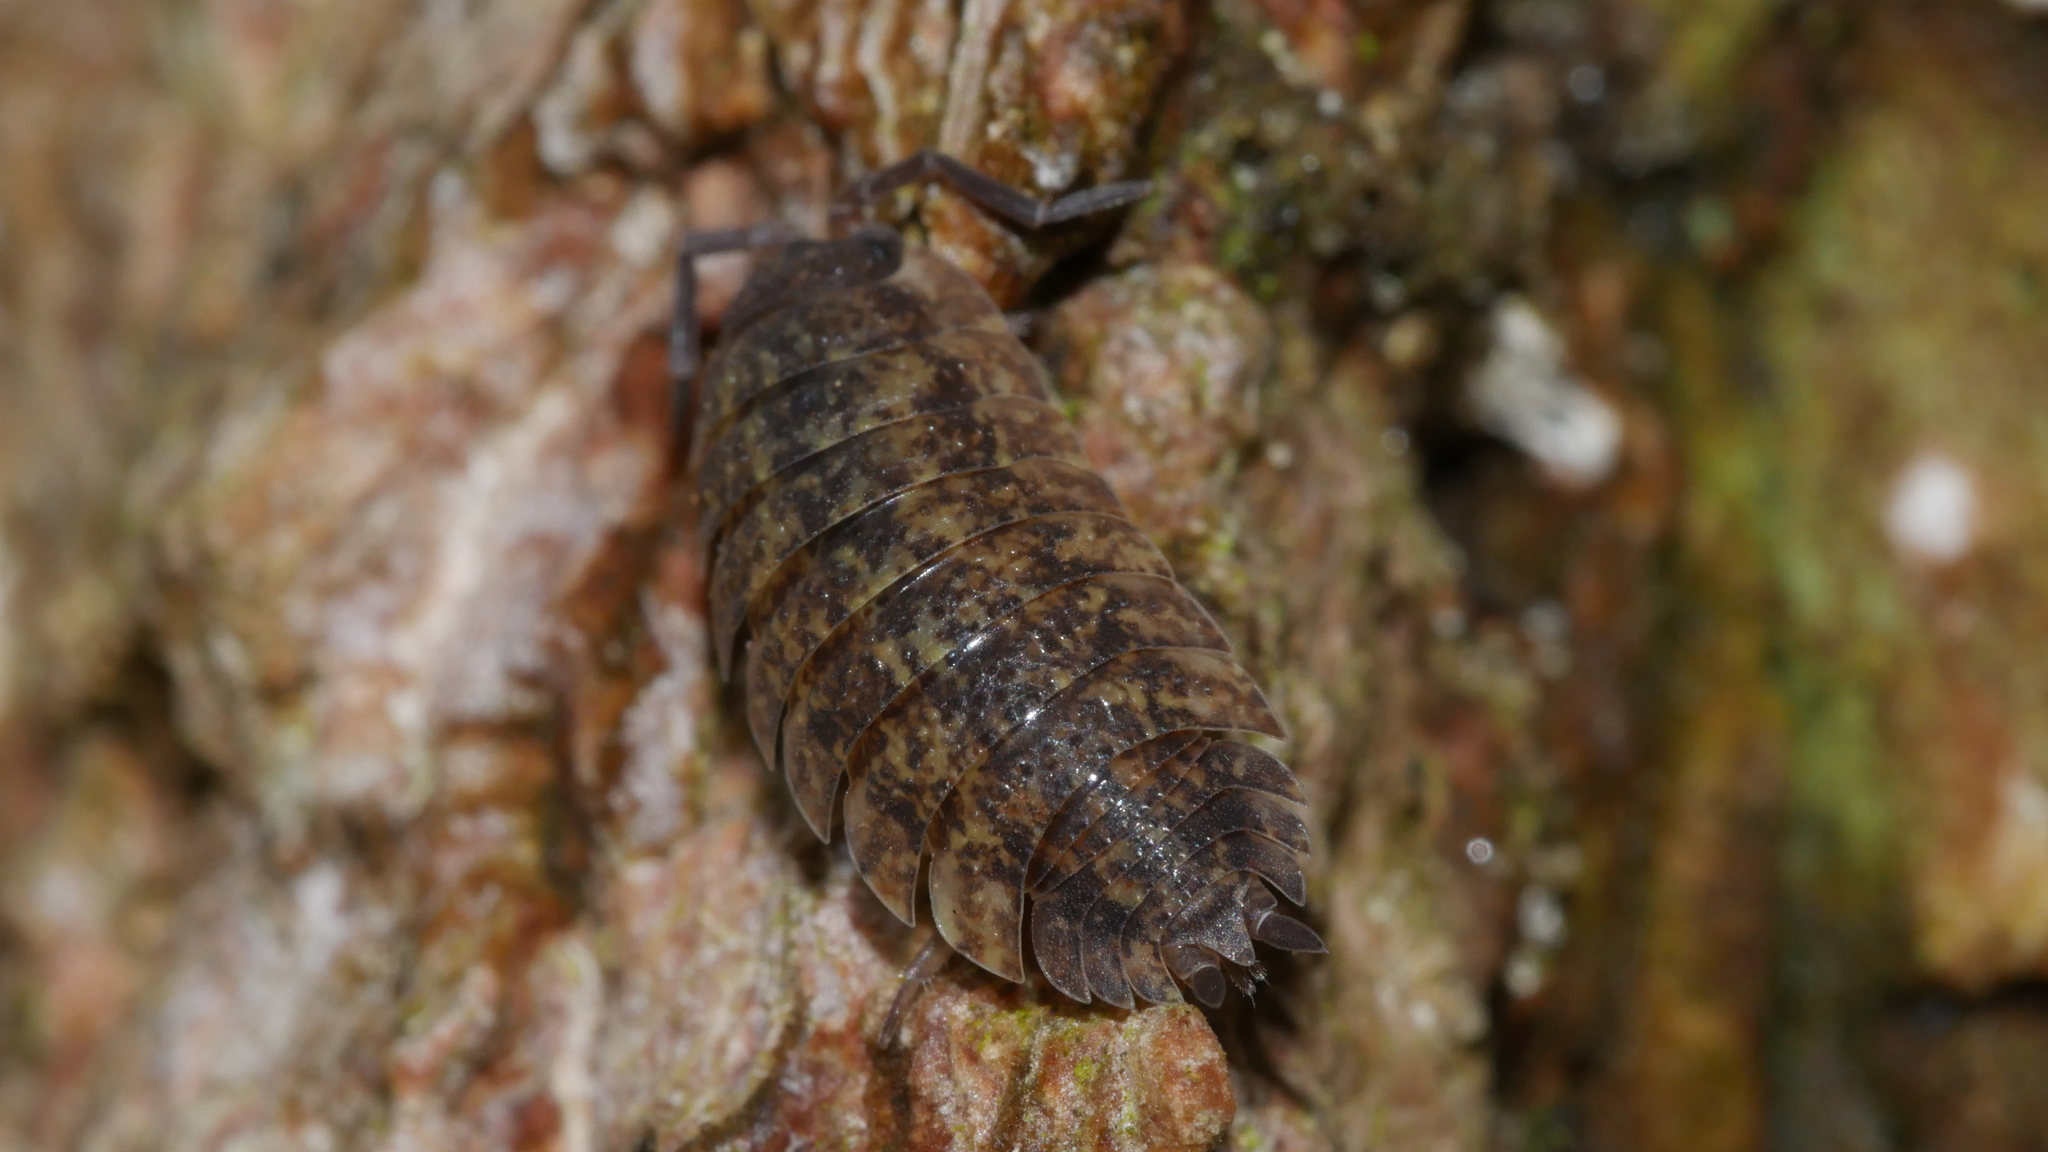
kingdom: Animalia
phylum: Arthropoda
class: Malacostraca
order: Isopoda
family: Porcellionidae
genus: Porcellio
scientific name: Porcellio scaber
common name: Common rough woodlouse
